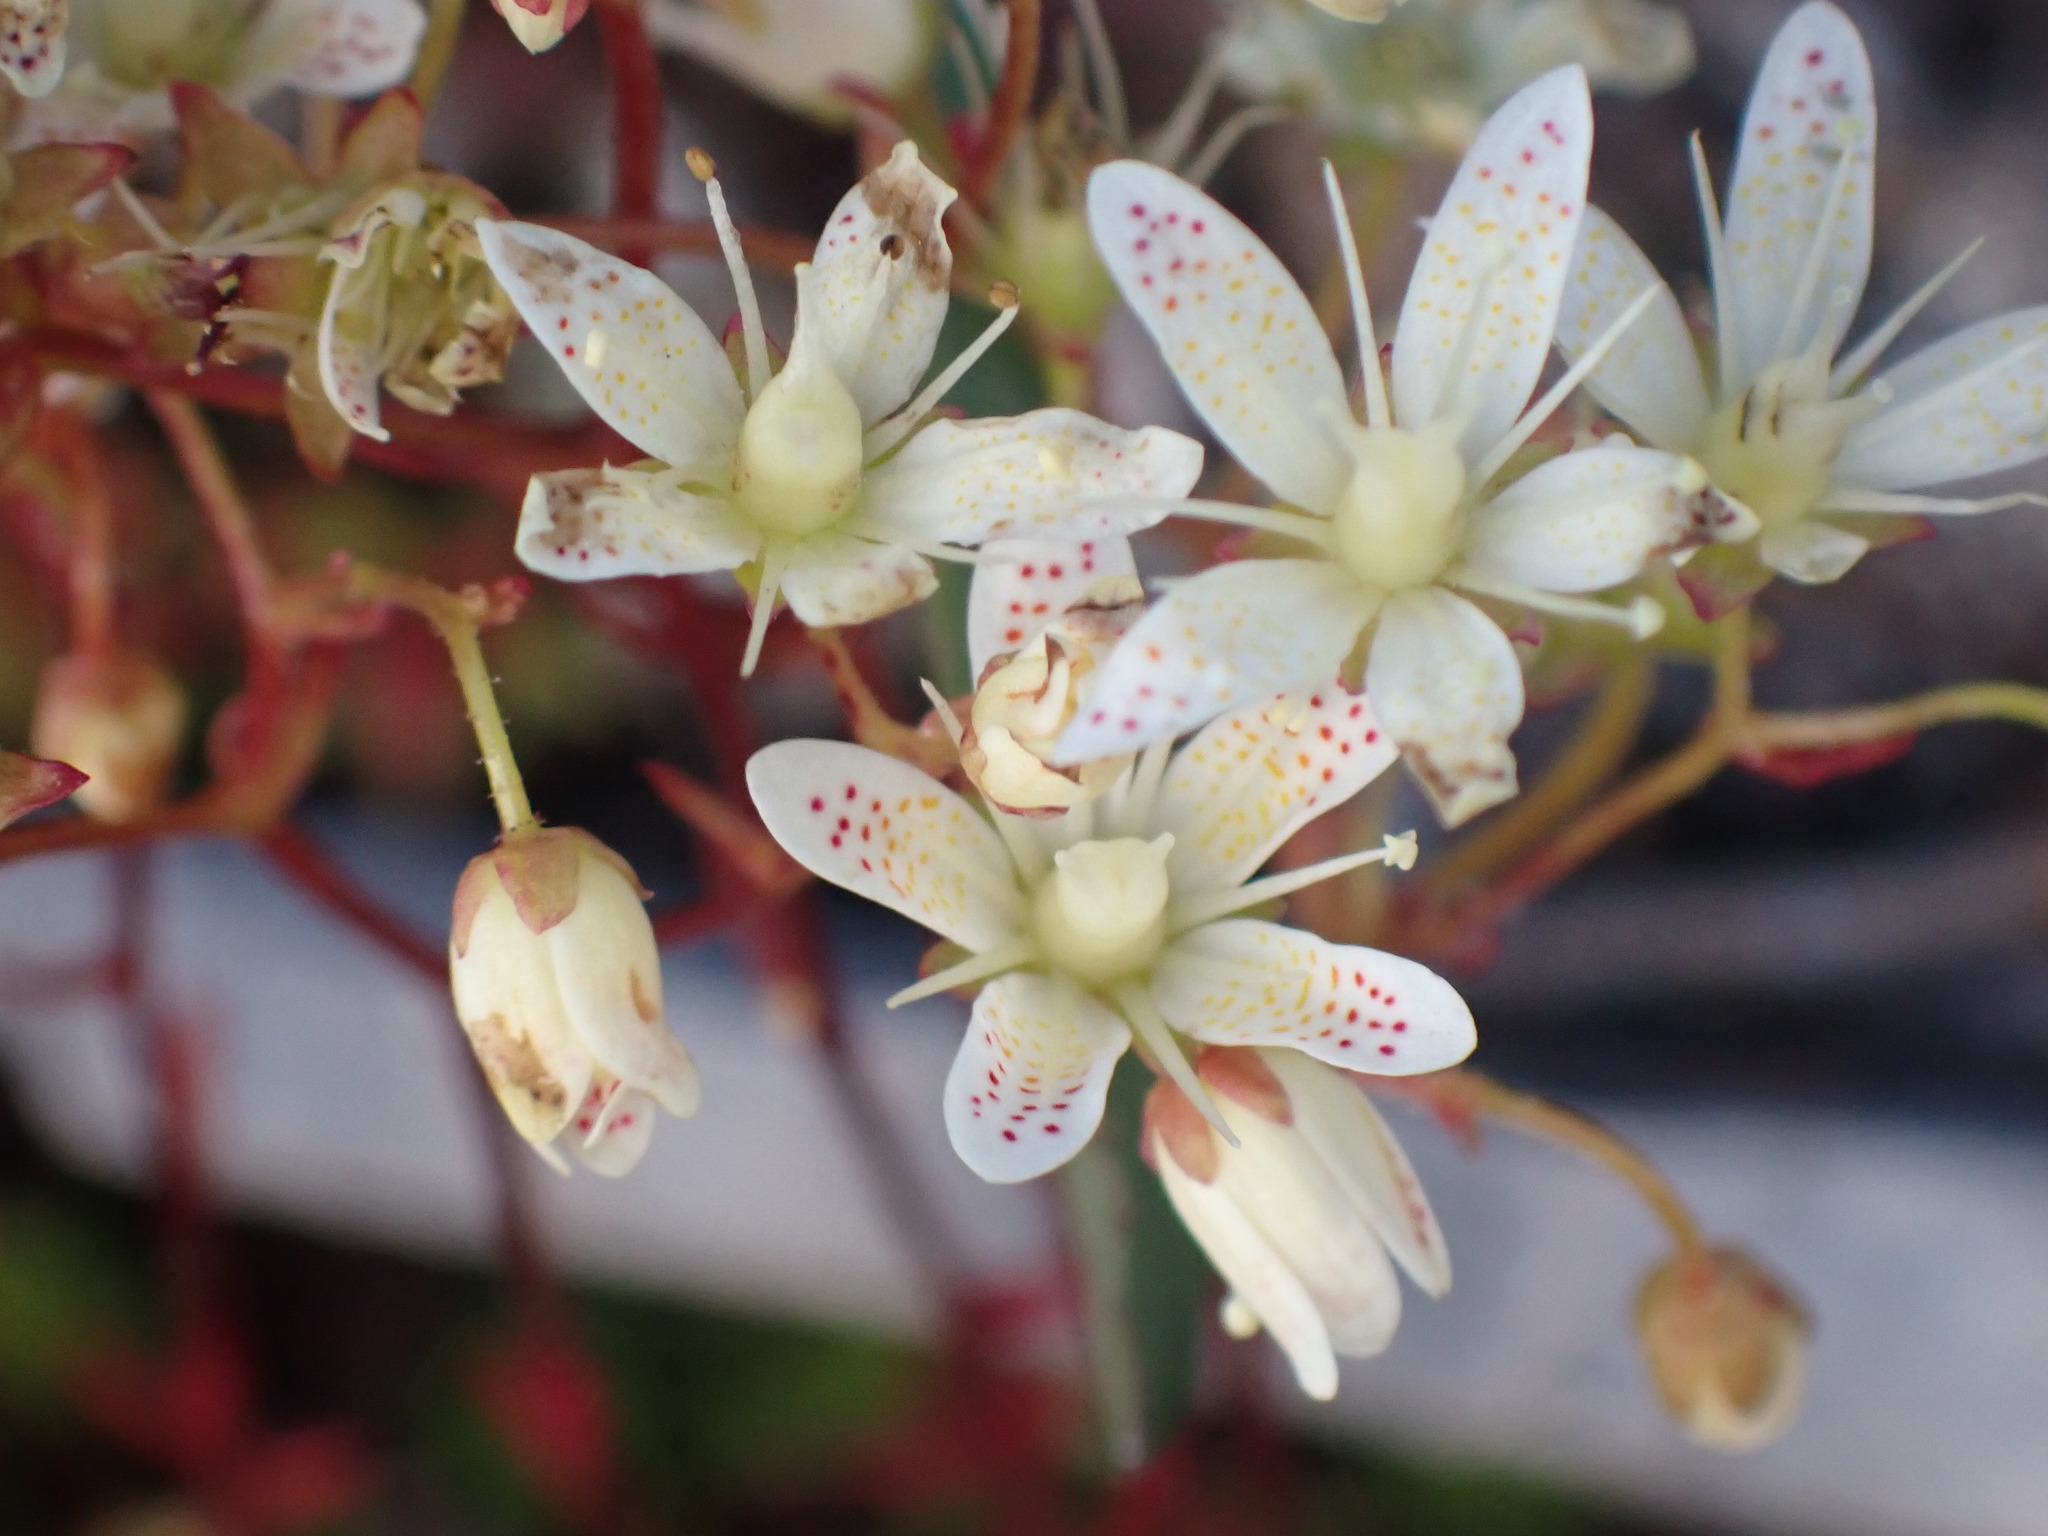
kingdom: Plantae
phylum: Tracheophyta
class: Magnoliopsida
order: Saxifragales
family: Saxifragaceae
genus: Saxifraga
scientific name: Saxifraga bronchialis
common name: Matted saxifrage
